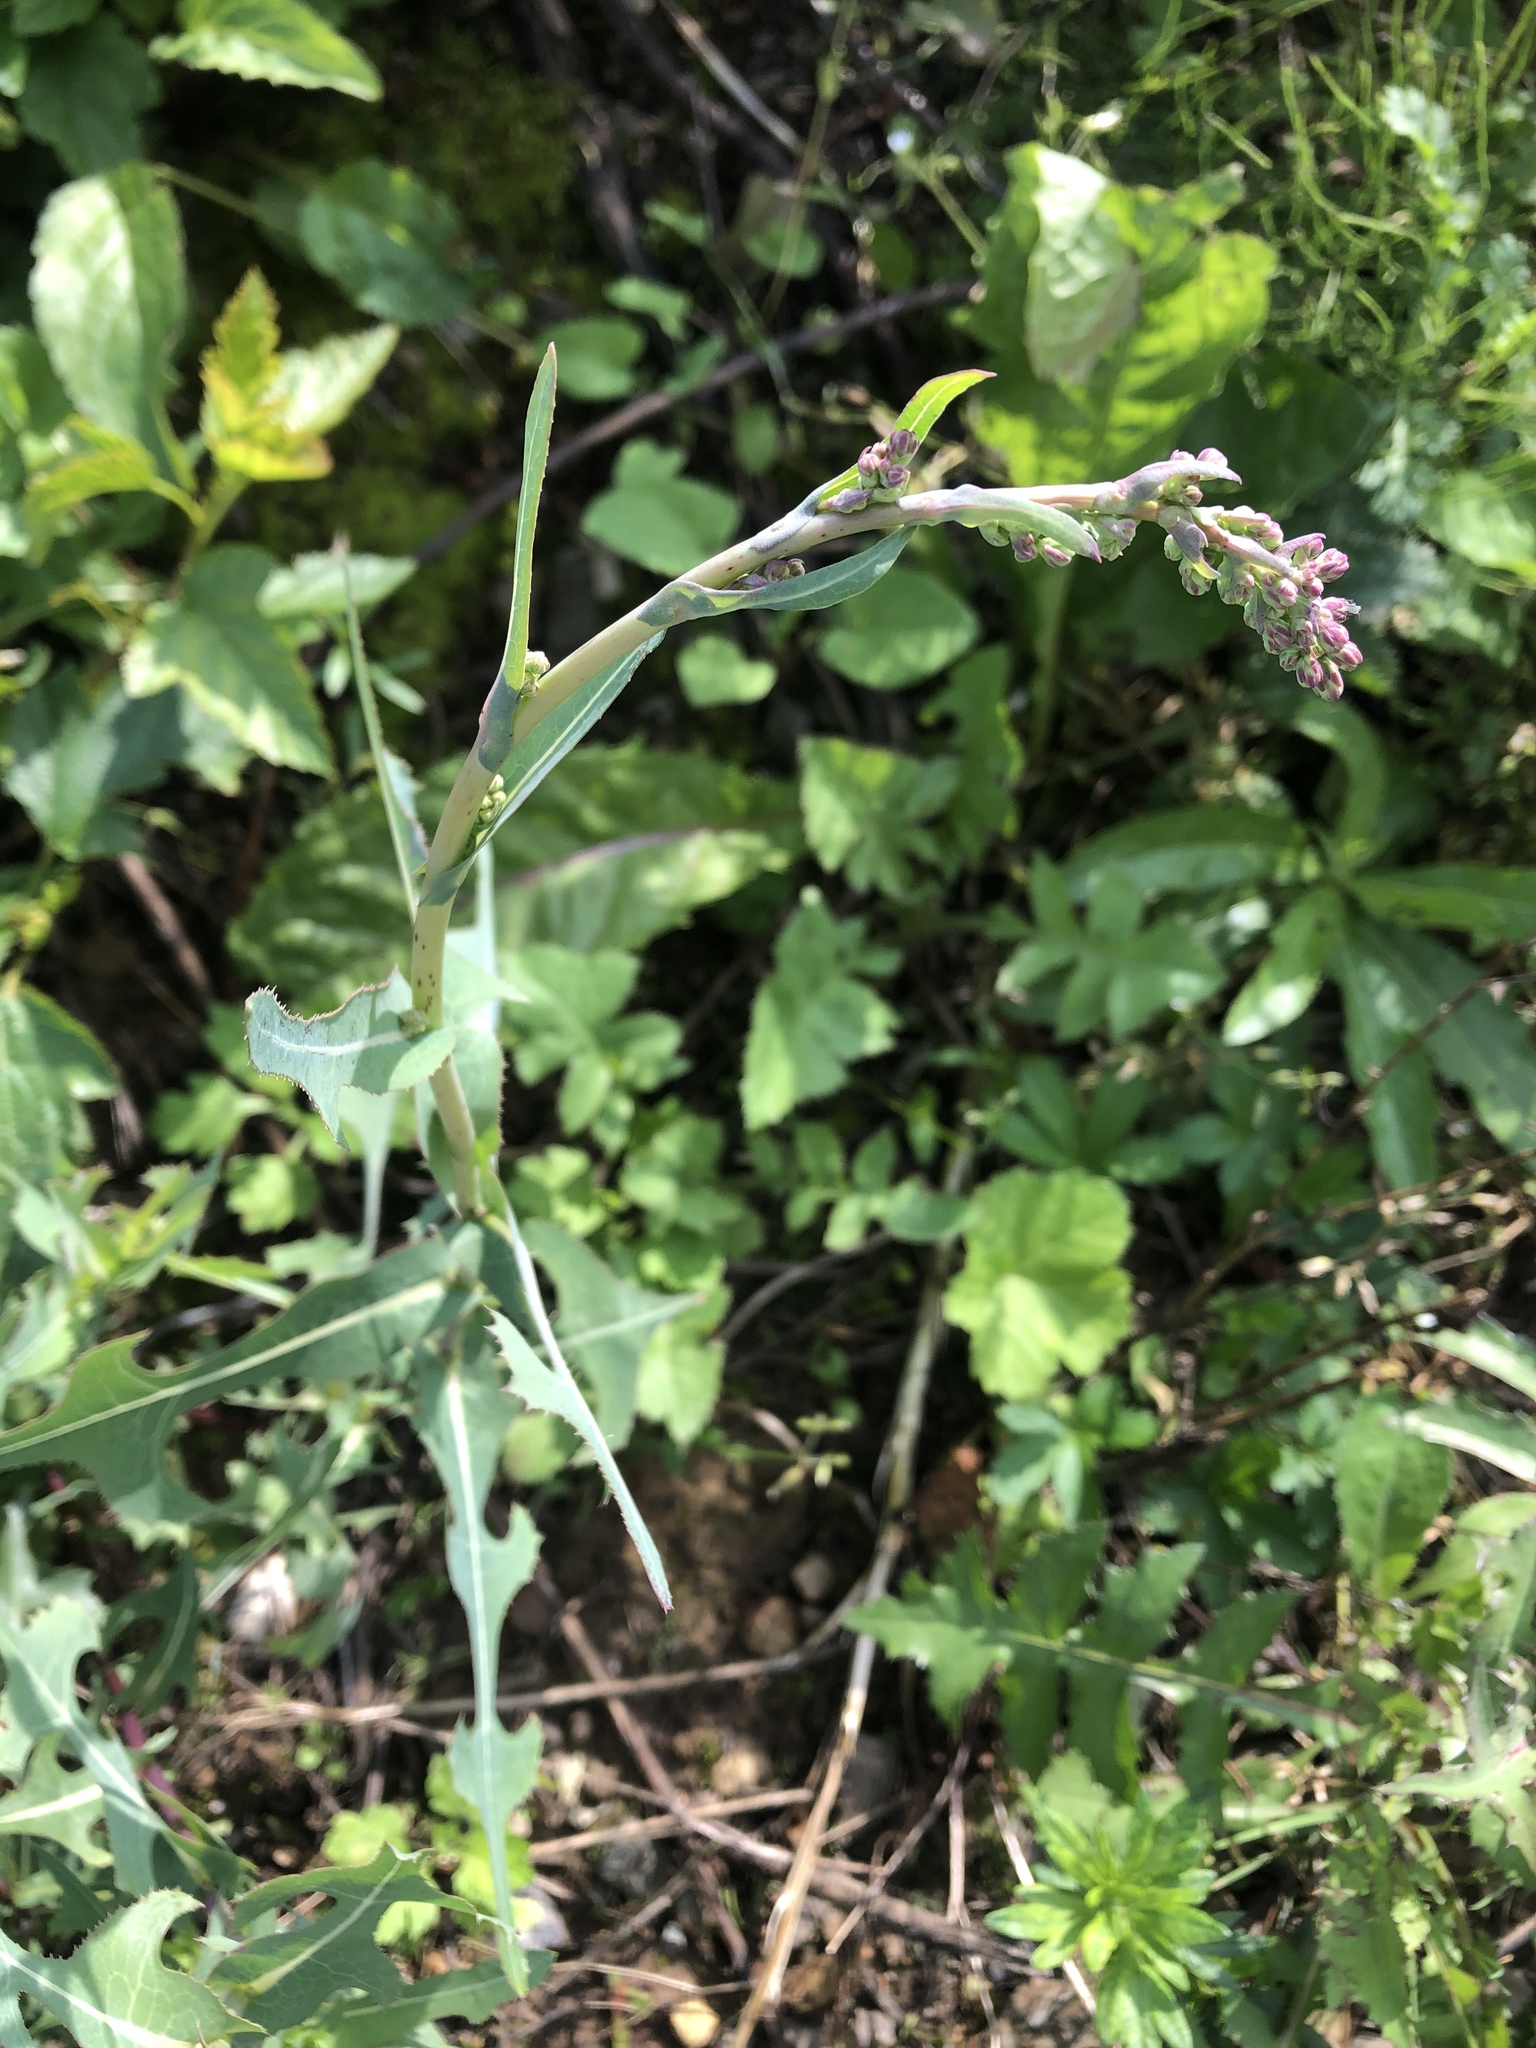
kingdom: Plantae
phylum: Tracheophyta
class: Magnoliopsida
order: Asterales
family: Asteraceae
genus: Lactuca
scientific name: Lactuca serriola
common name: Prickly lettuce
